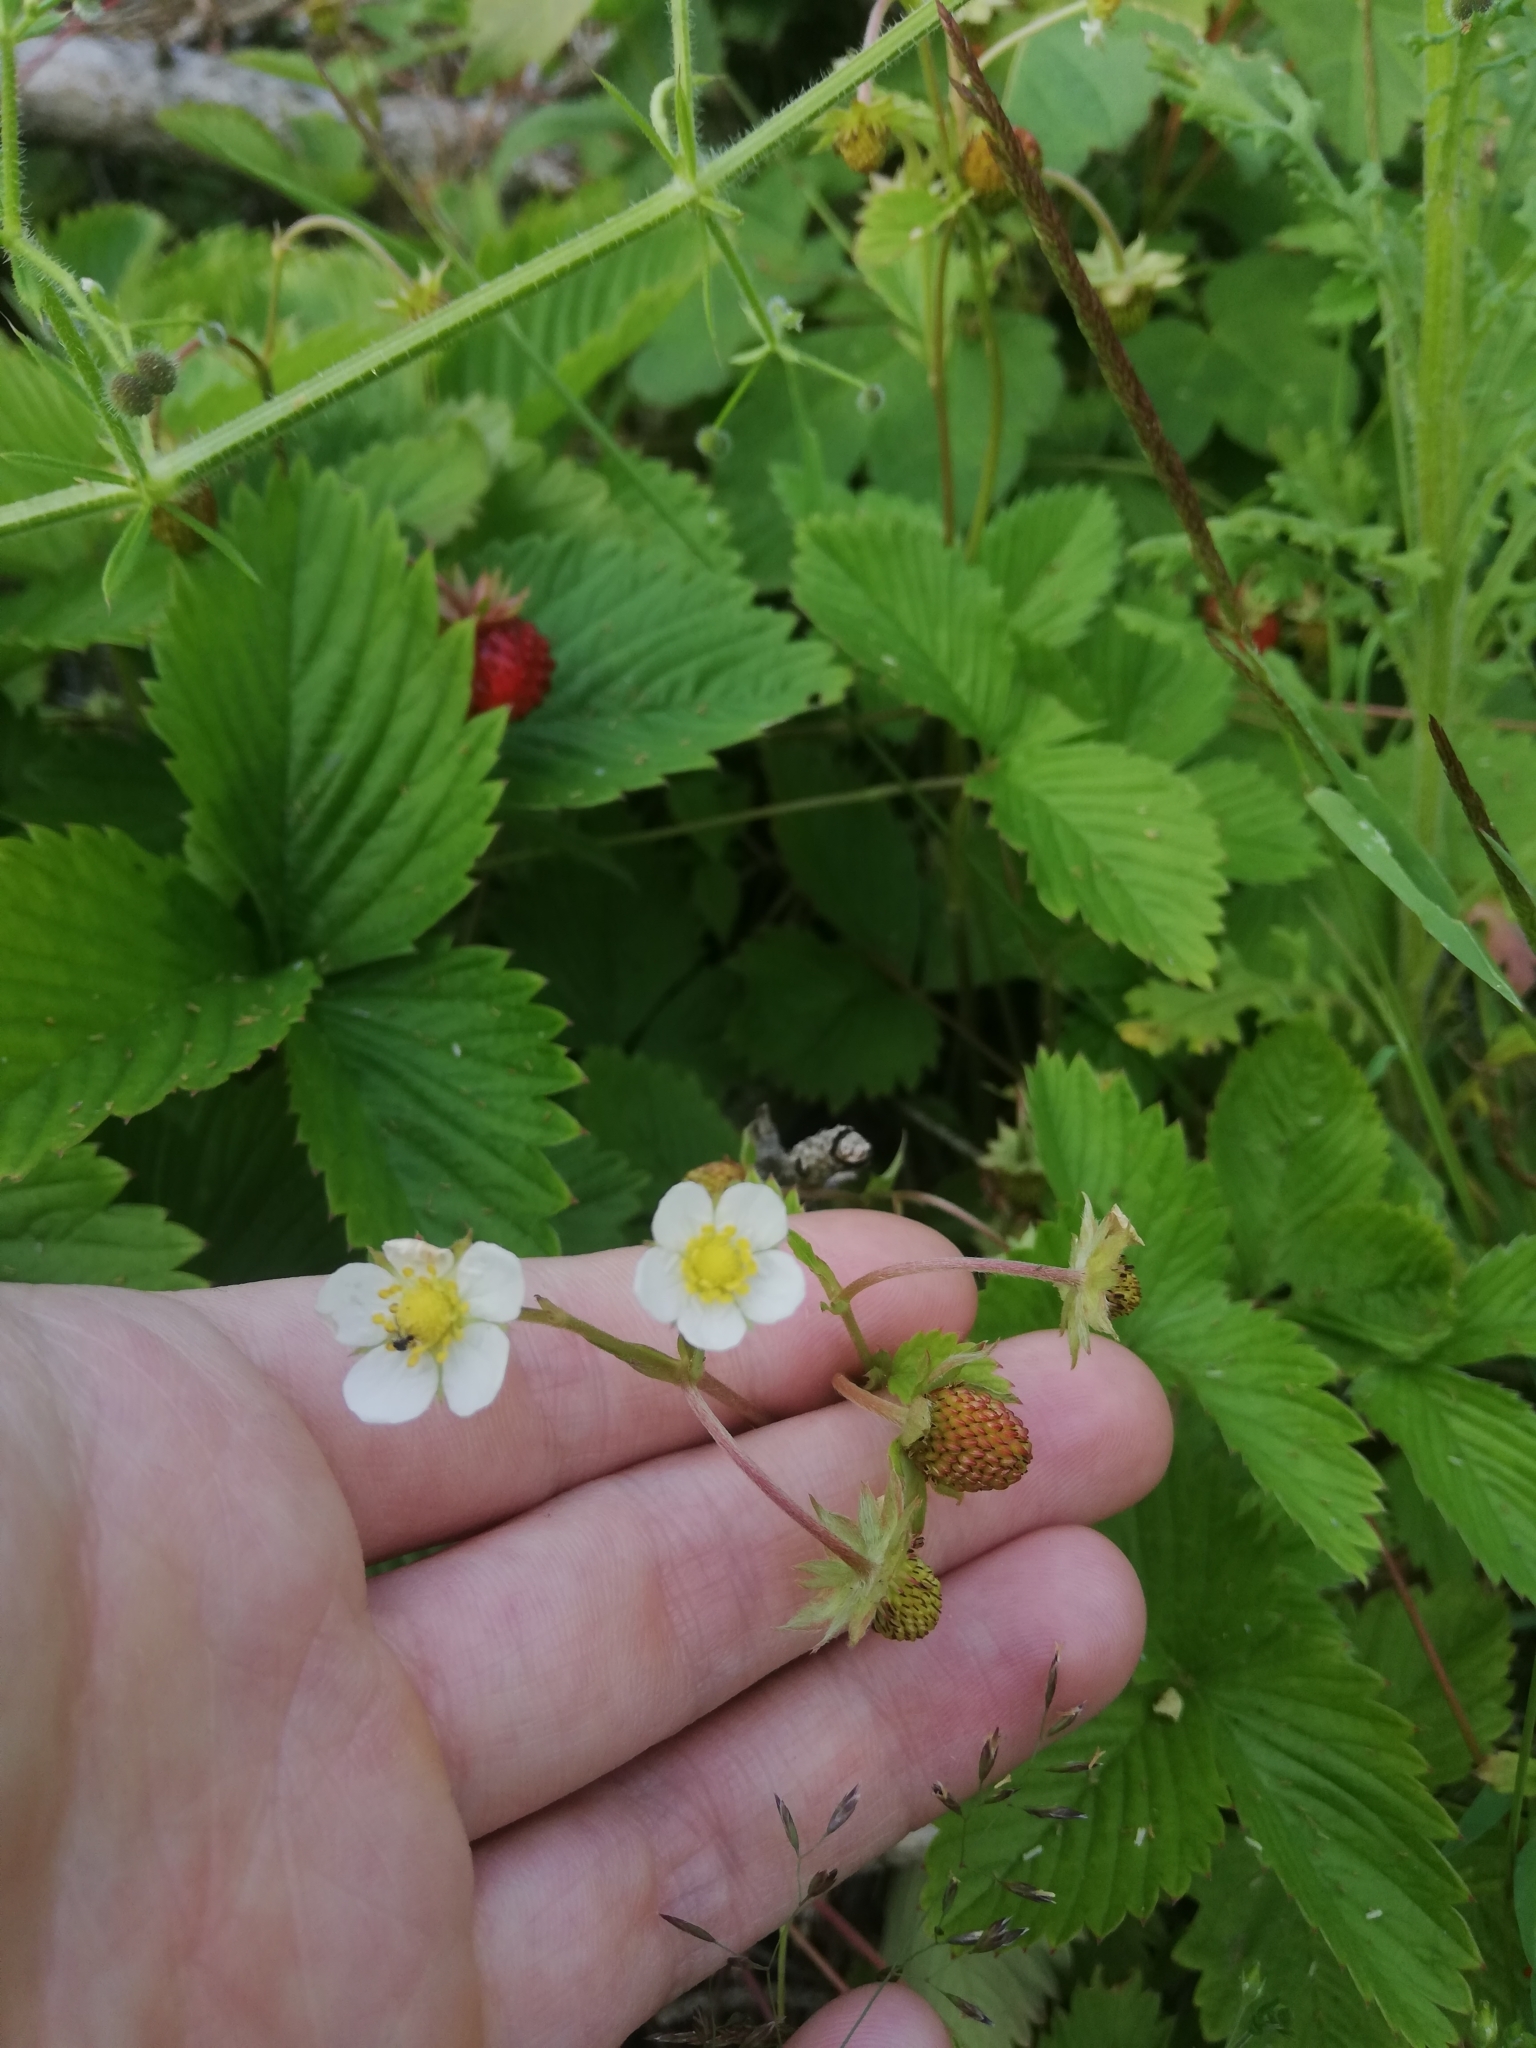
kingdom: Plantae
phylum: Tracheophyta
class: Magnoliopsida
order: Rosales
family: Rosaceae
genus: Fragaria
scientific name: Fragaria vesca
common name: Wild strawberry
